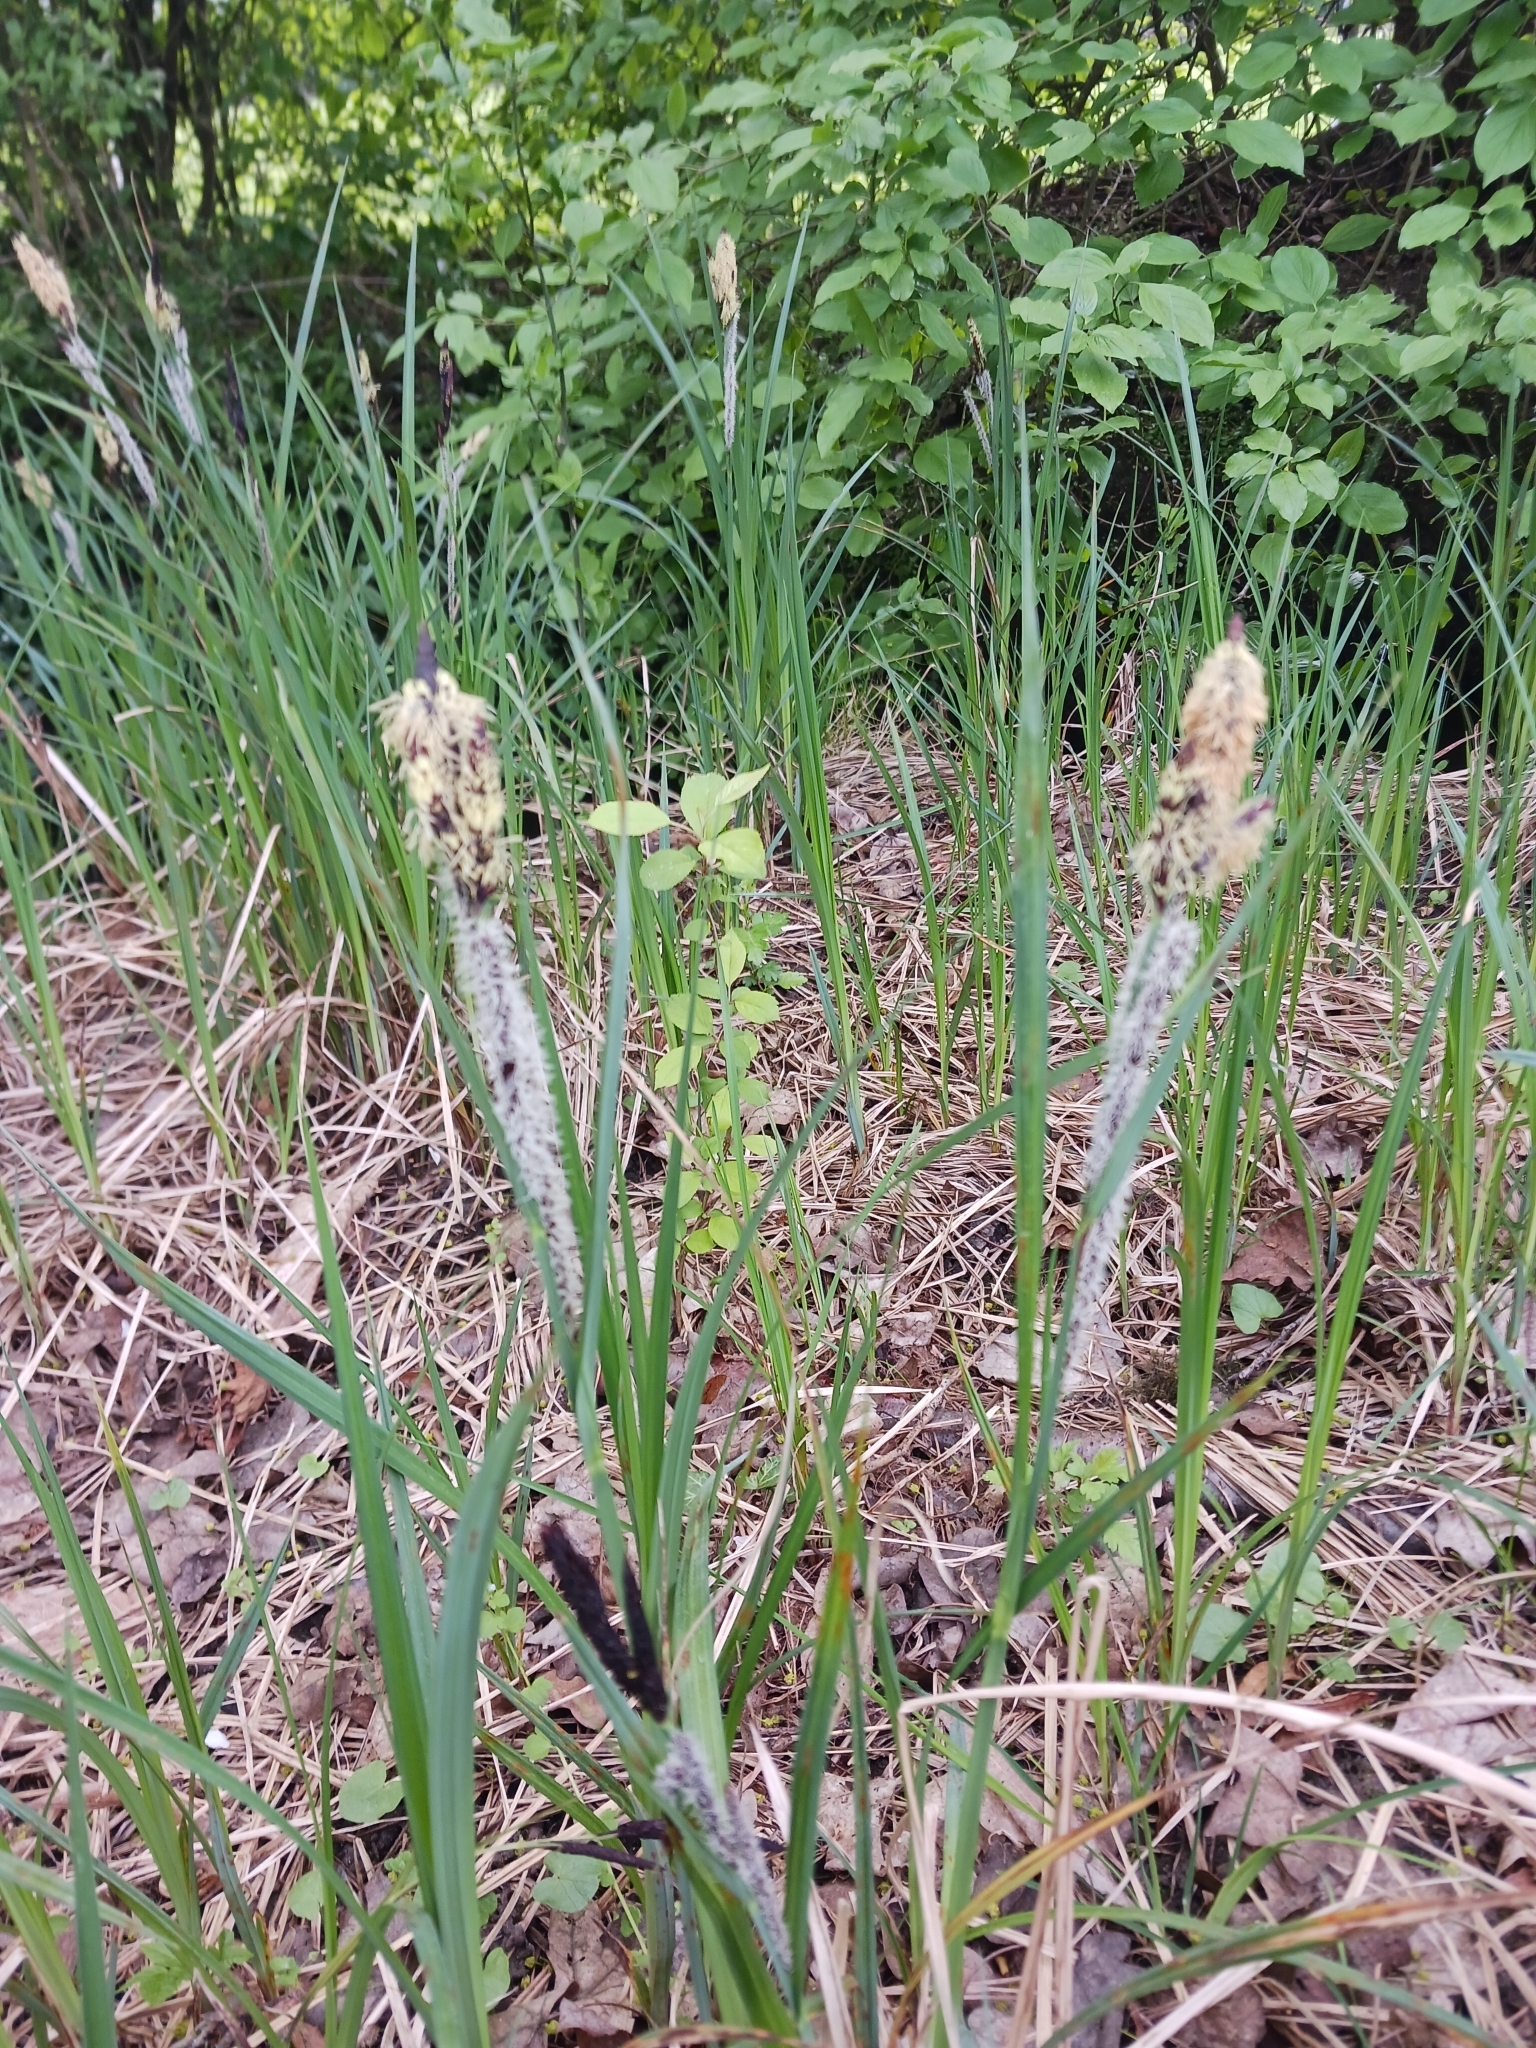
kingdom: Plantae
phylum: Tracheophyta
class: Liliopsida
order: Poales
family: Cyperaceae
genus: Carex
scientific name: Carex acutiformis
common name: Lesser pond-sedge
